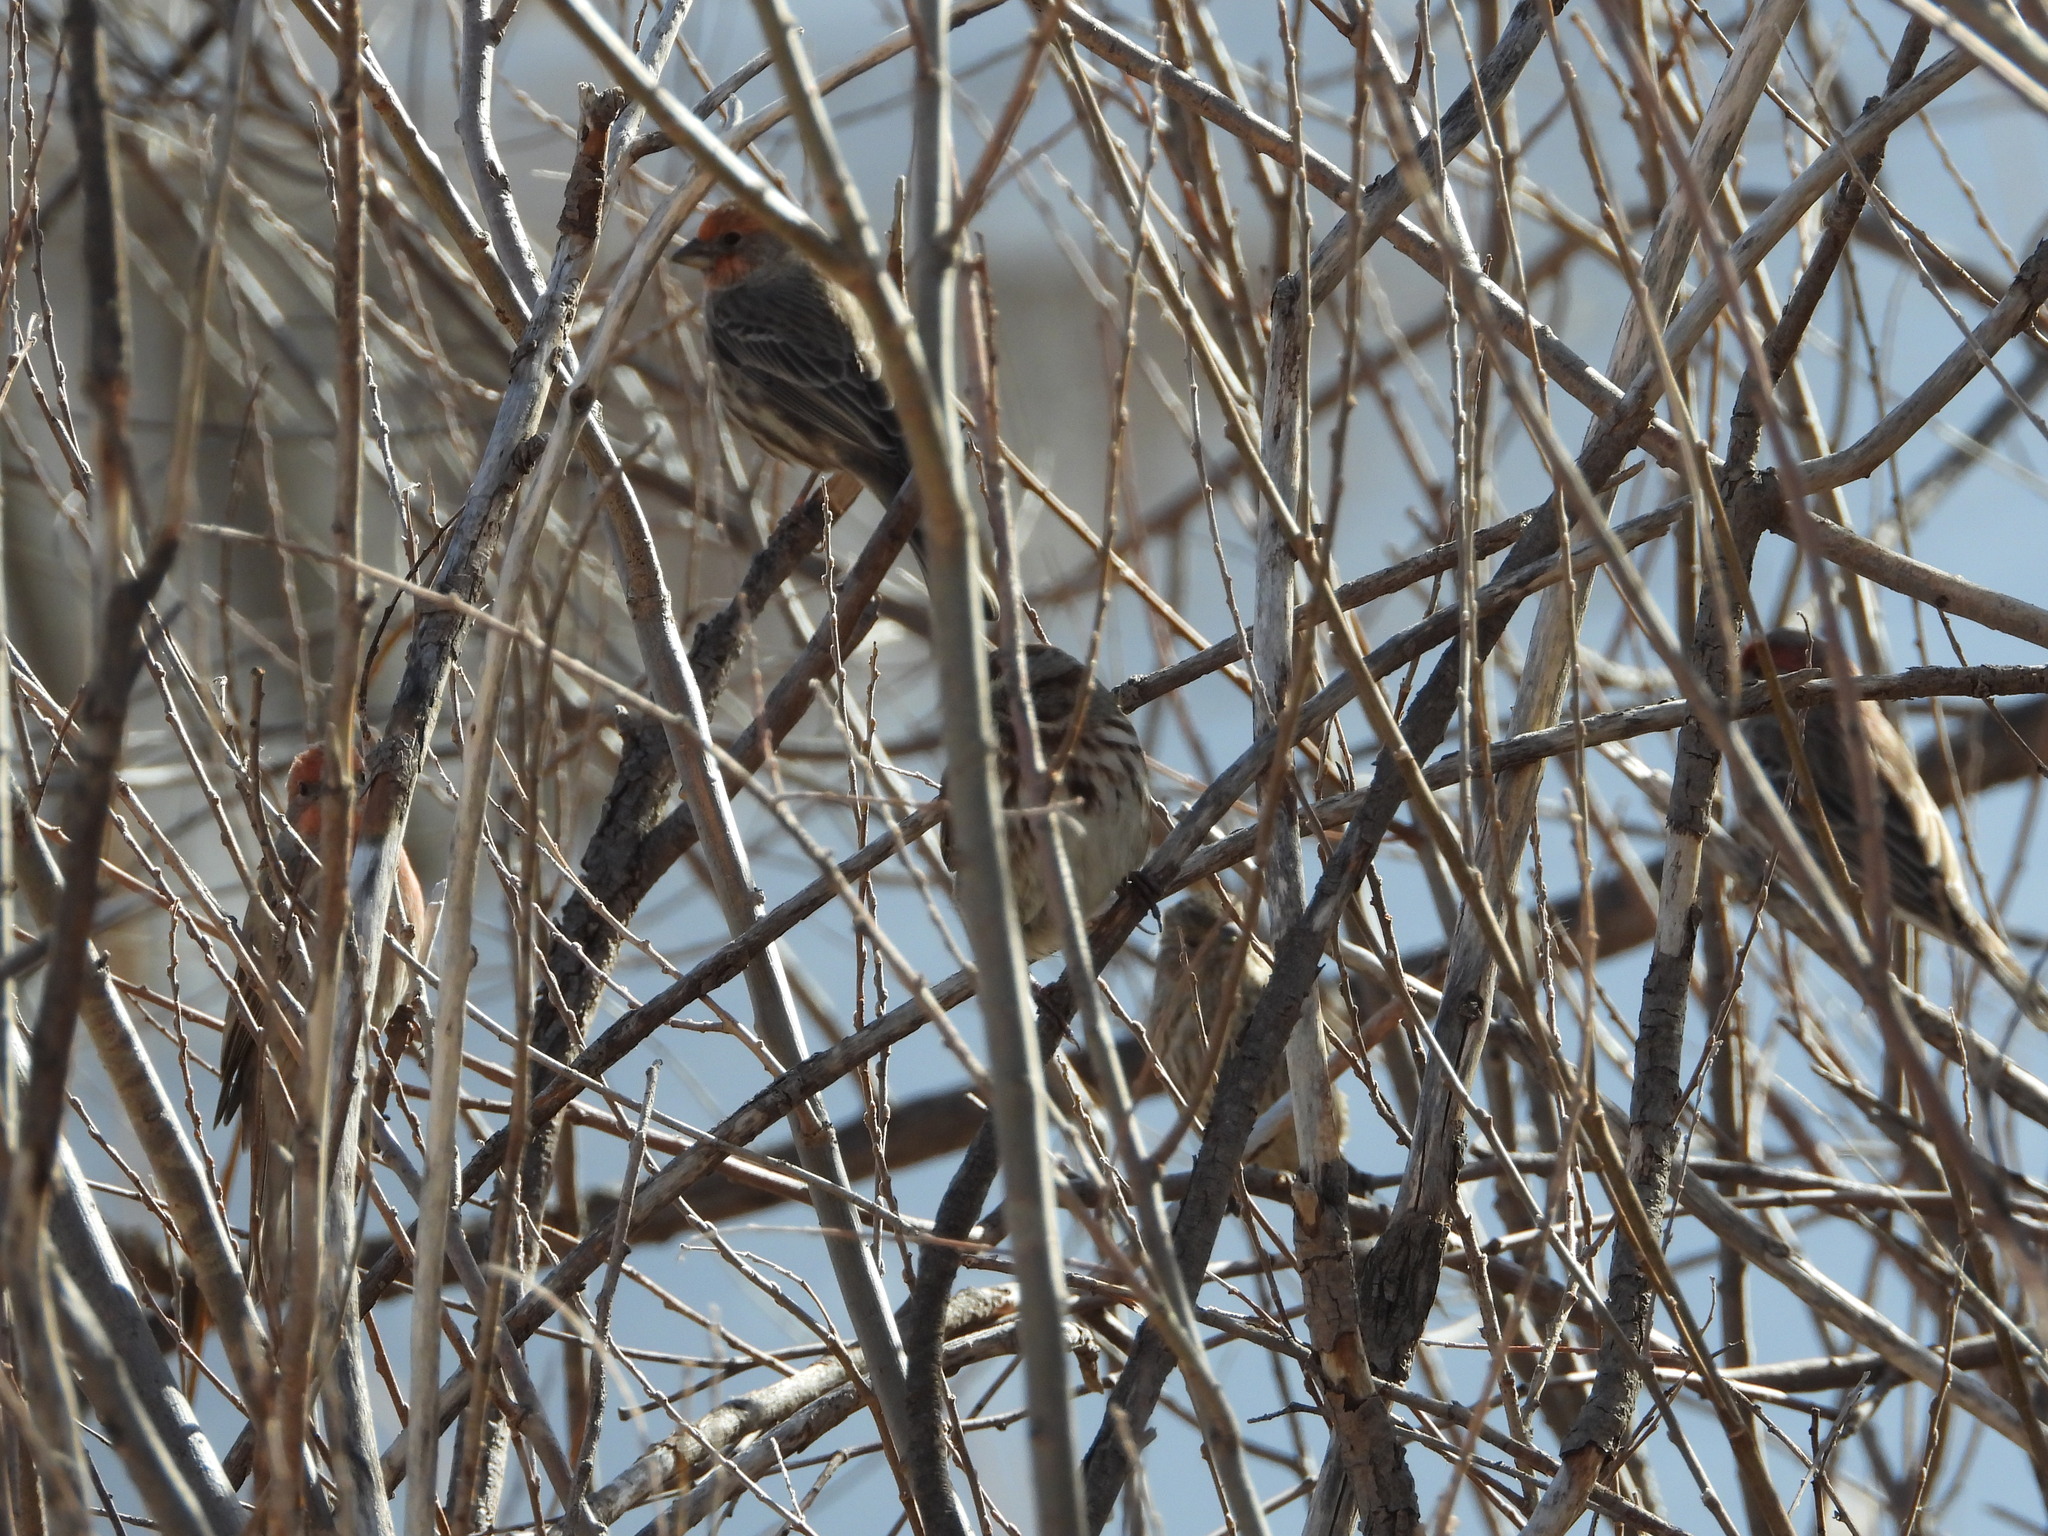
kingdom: Animalia
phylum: Chordata
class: Aves
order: Passeriformes
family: Passerellidae
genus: Melospiza
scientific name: Melospiza melodia
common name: Song sparrow
